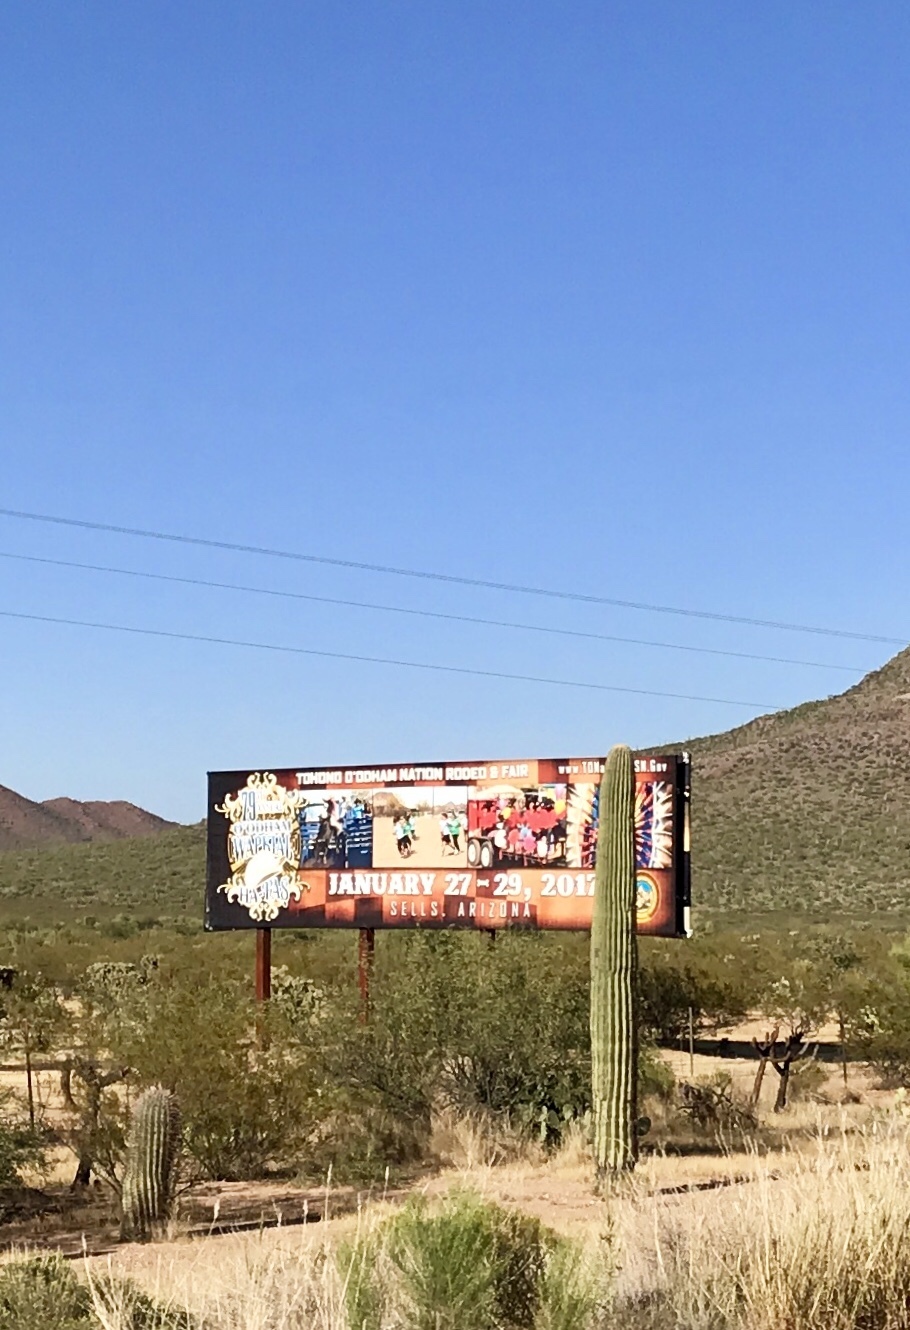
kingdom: Plantae
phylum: Tracheophyta
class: Magnoliopsida
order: Caryophyllales
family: Cactaceae
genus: Carnegiea
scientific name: Carnegiea gigantea
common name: Saguaro
